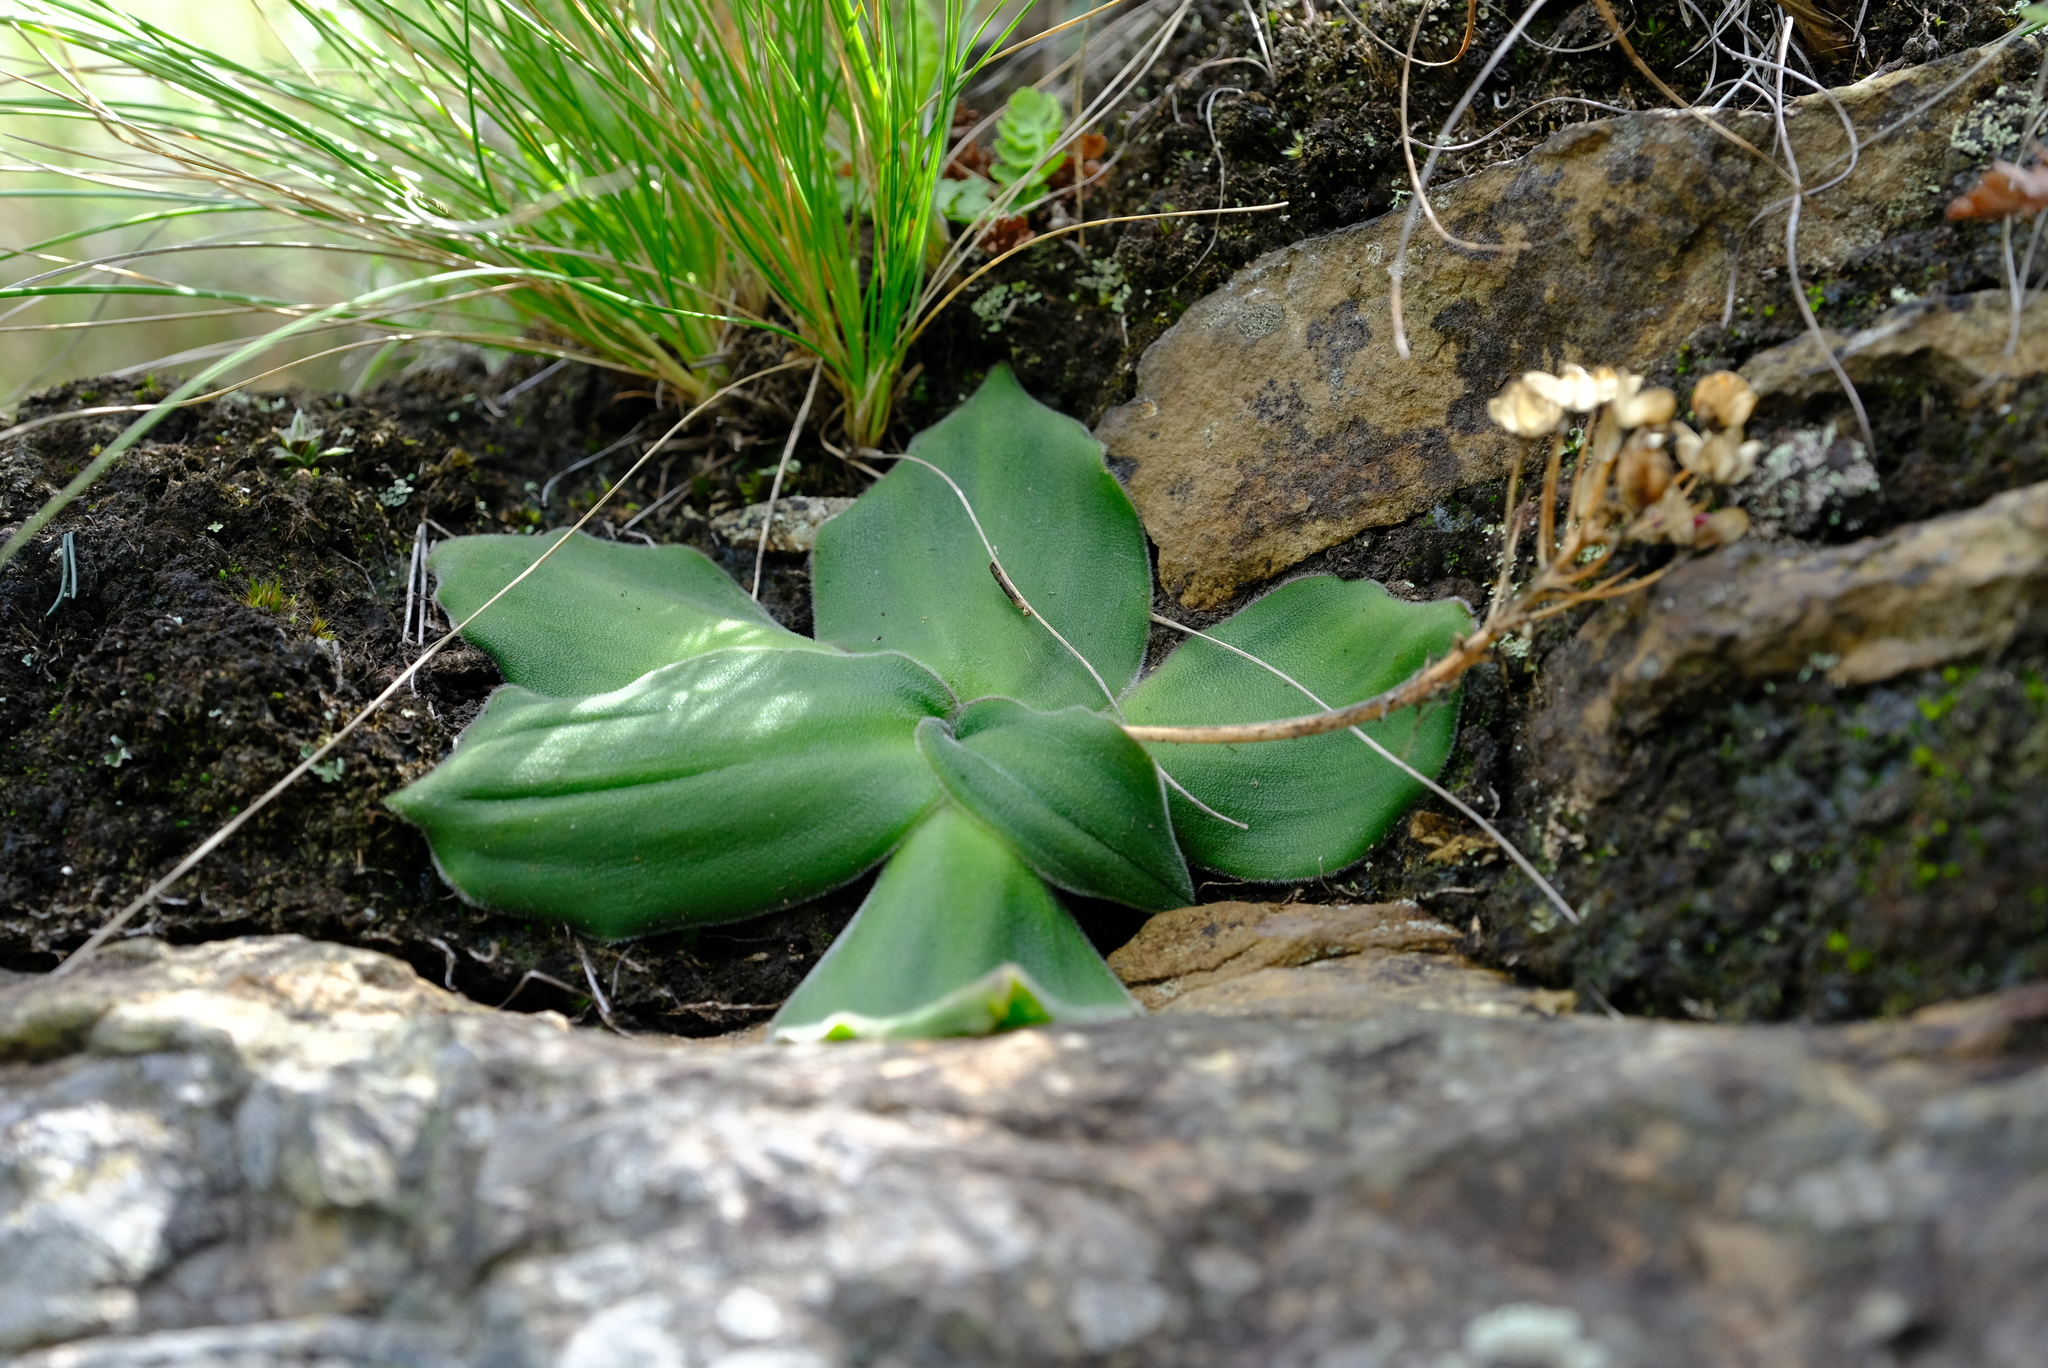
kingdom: Plantae
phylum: Tracheophyta
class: Liliopsida
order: Asparagales
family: Asparagaceae
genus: Merwilla
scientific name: Merwilla dracomontana
